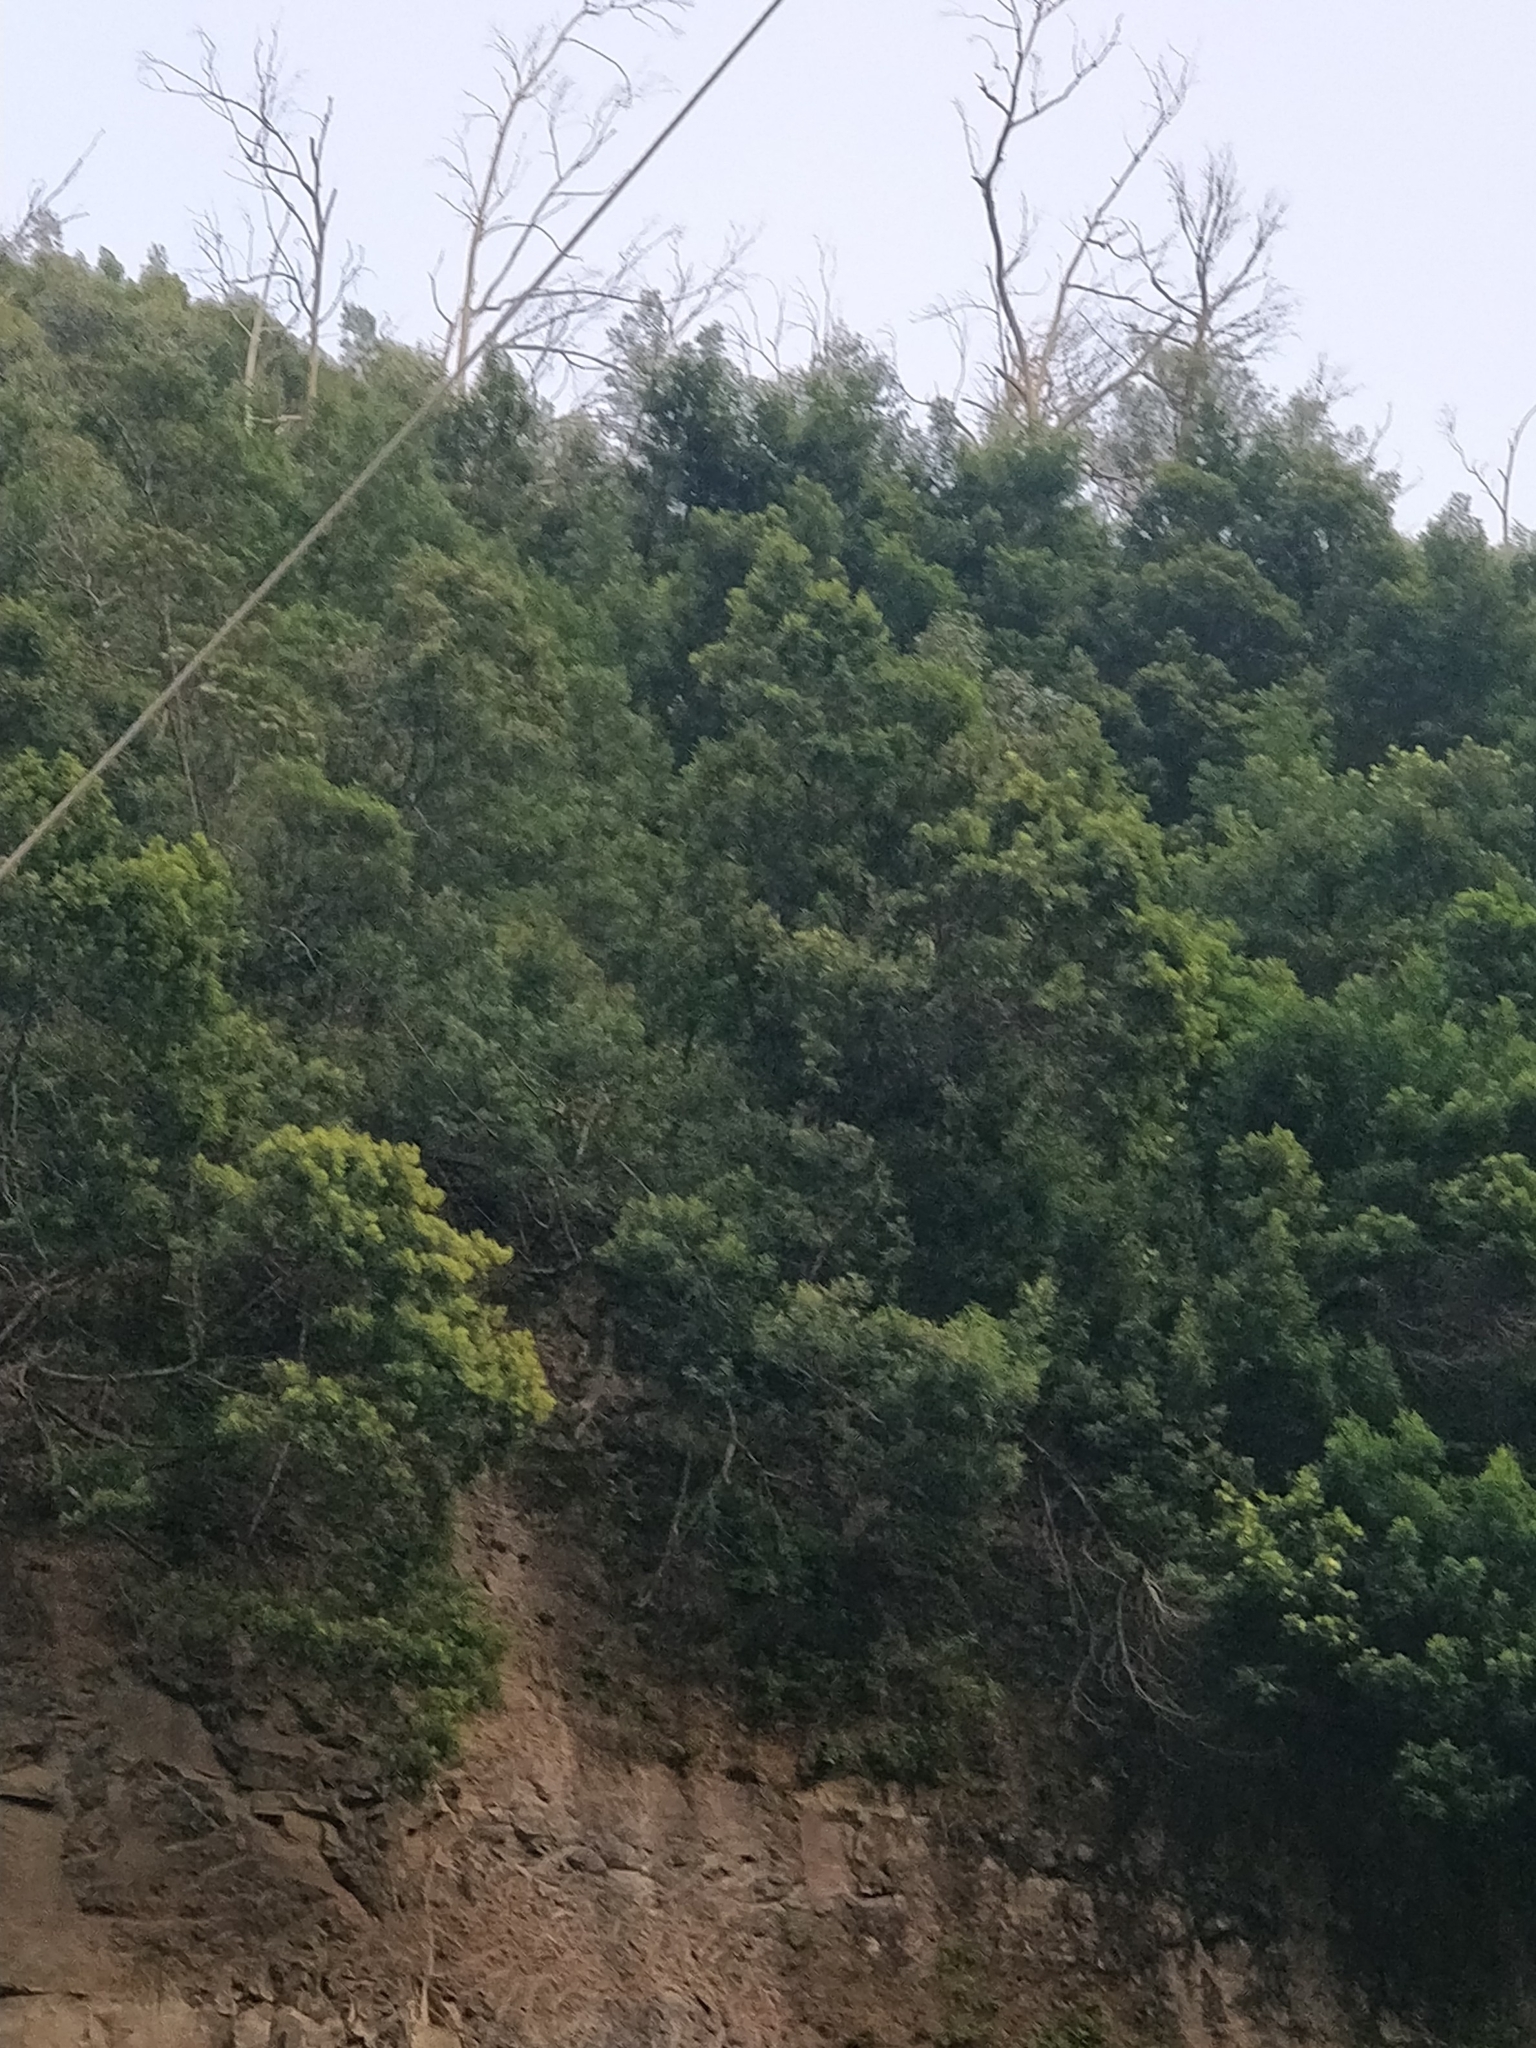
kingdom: Plantae
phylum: Tracheophyta
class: Magnoliopsida
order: Fabales
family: Fabaceae
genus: Acacia
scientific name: Acacia mearnsii
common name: Black wattle
